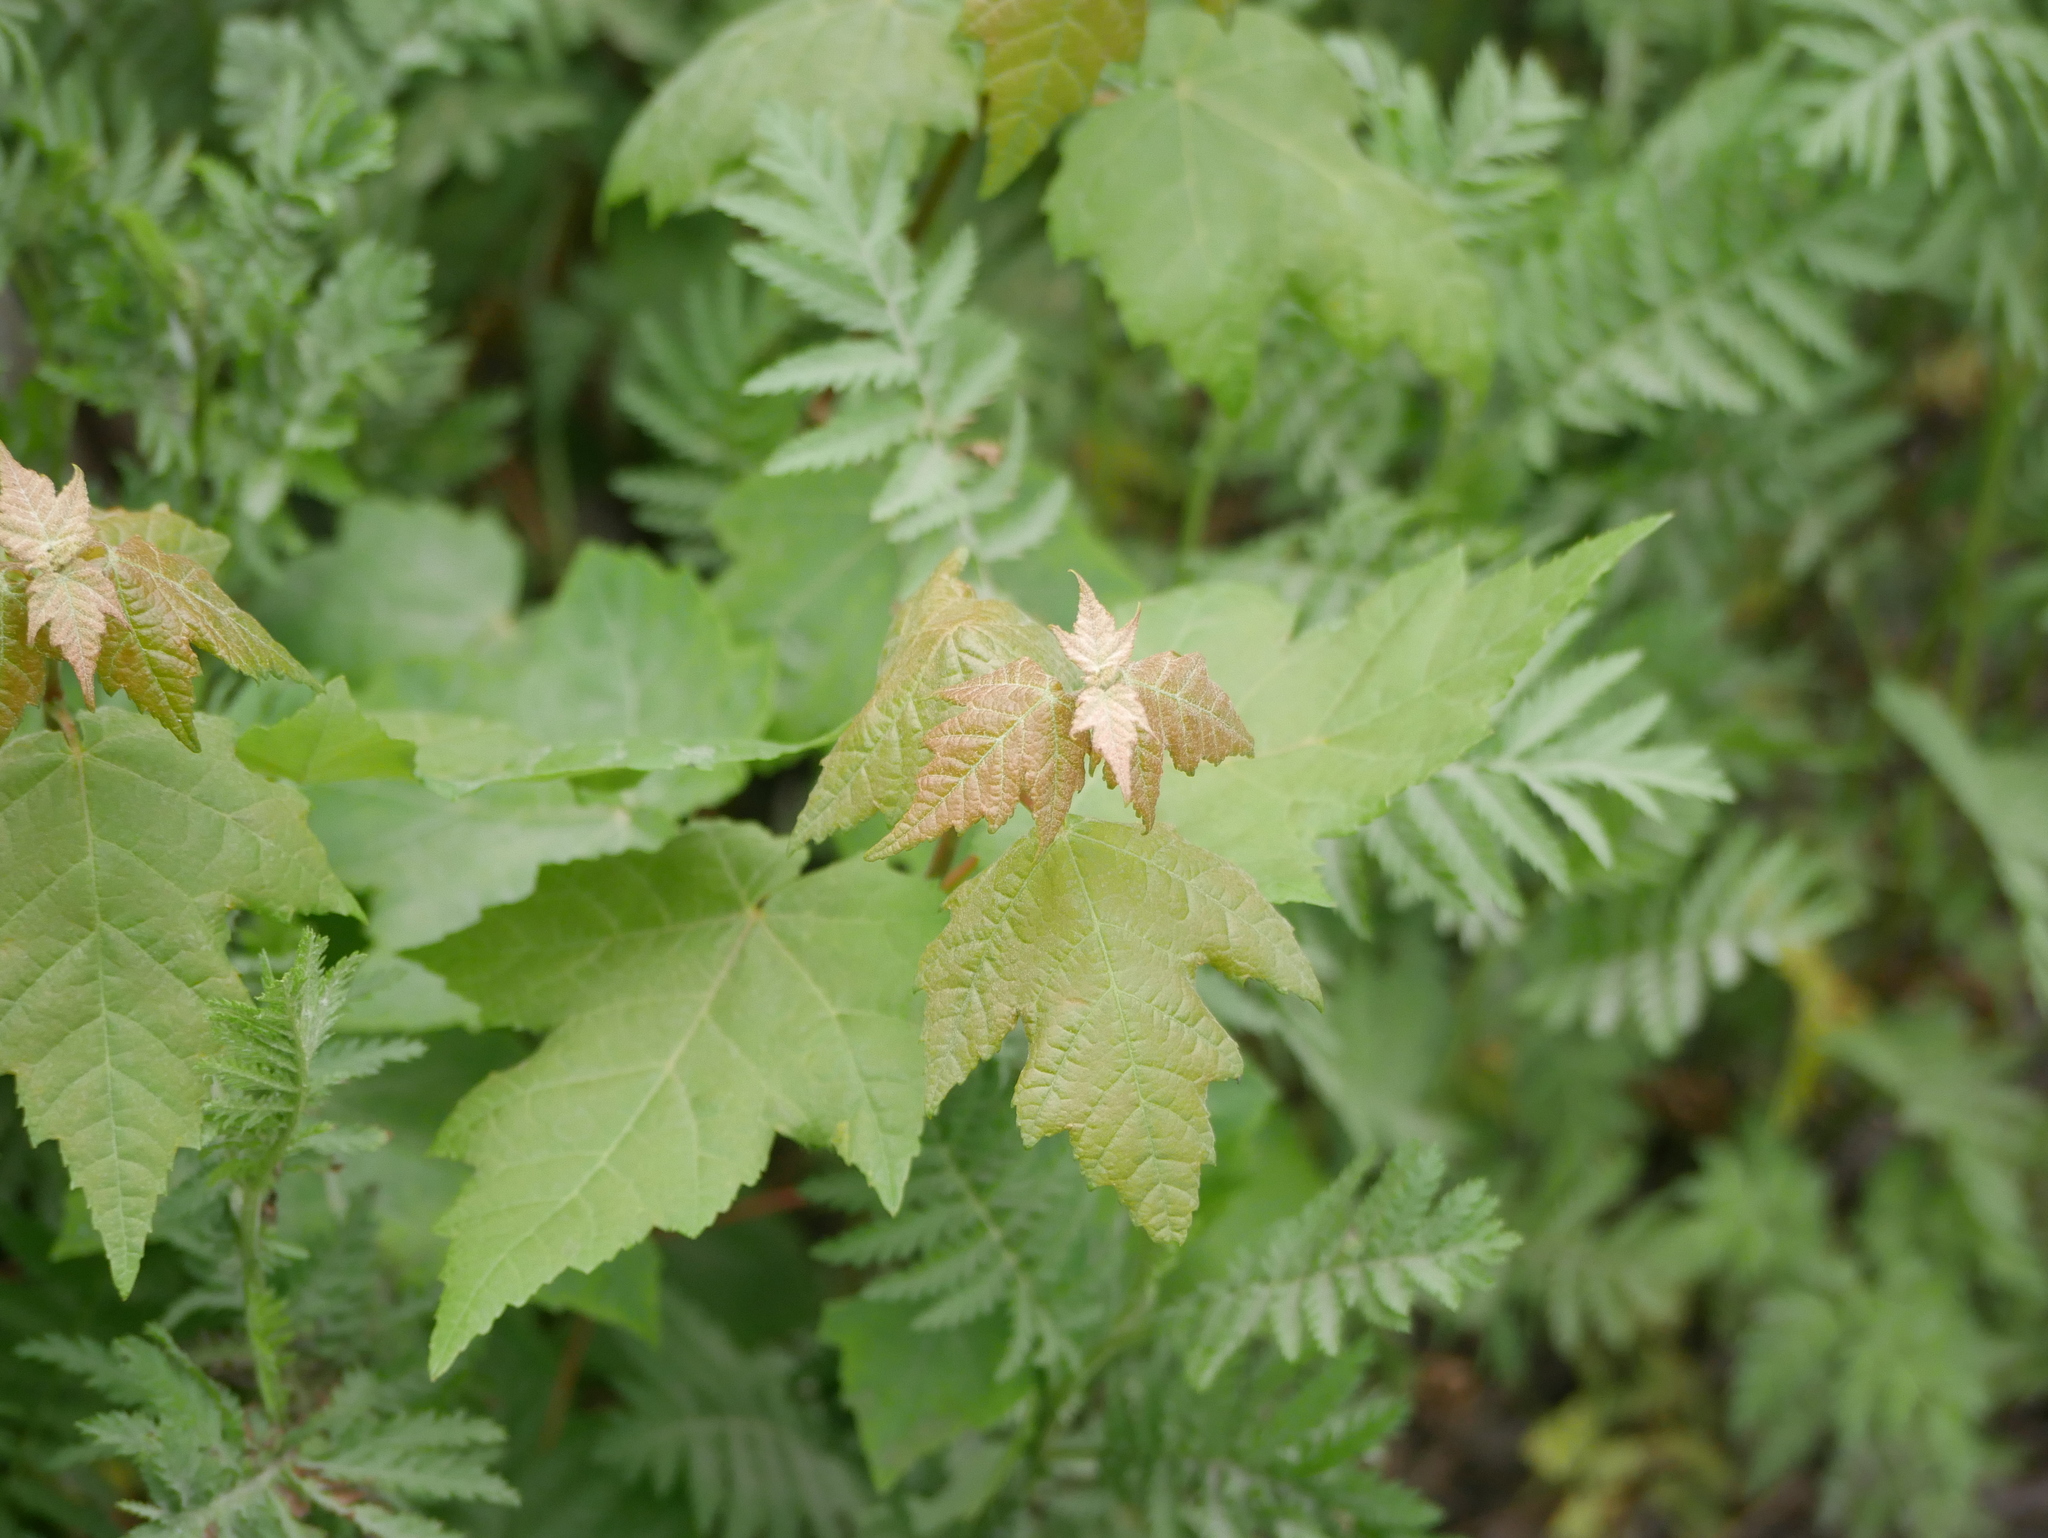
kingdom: Plantae
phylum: Tracheophyta
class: Magnoliopsida
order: Sapindales
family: Sapindaceae
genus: Acer
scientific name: Acer rubrum
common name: Red maple
